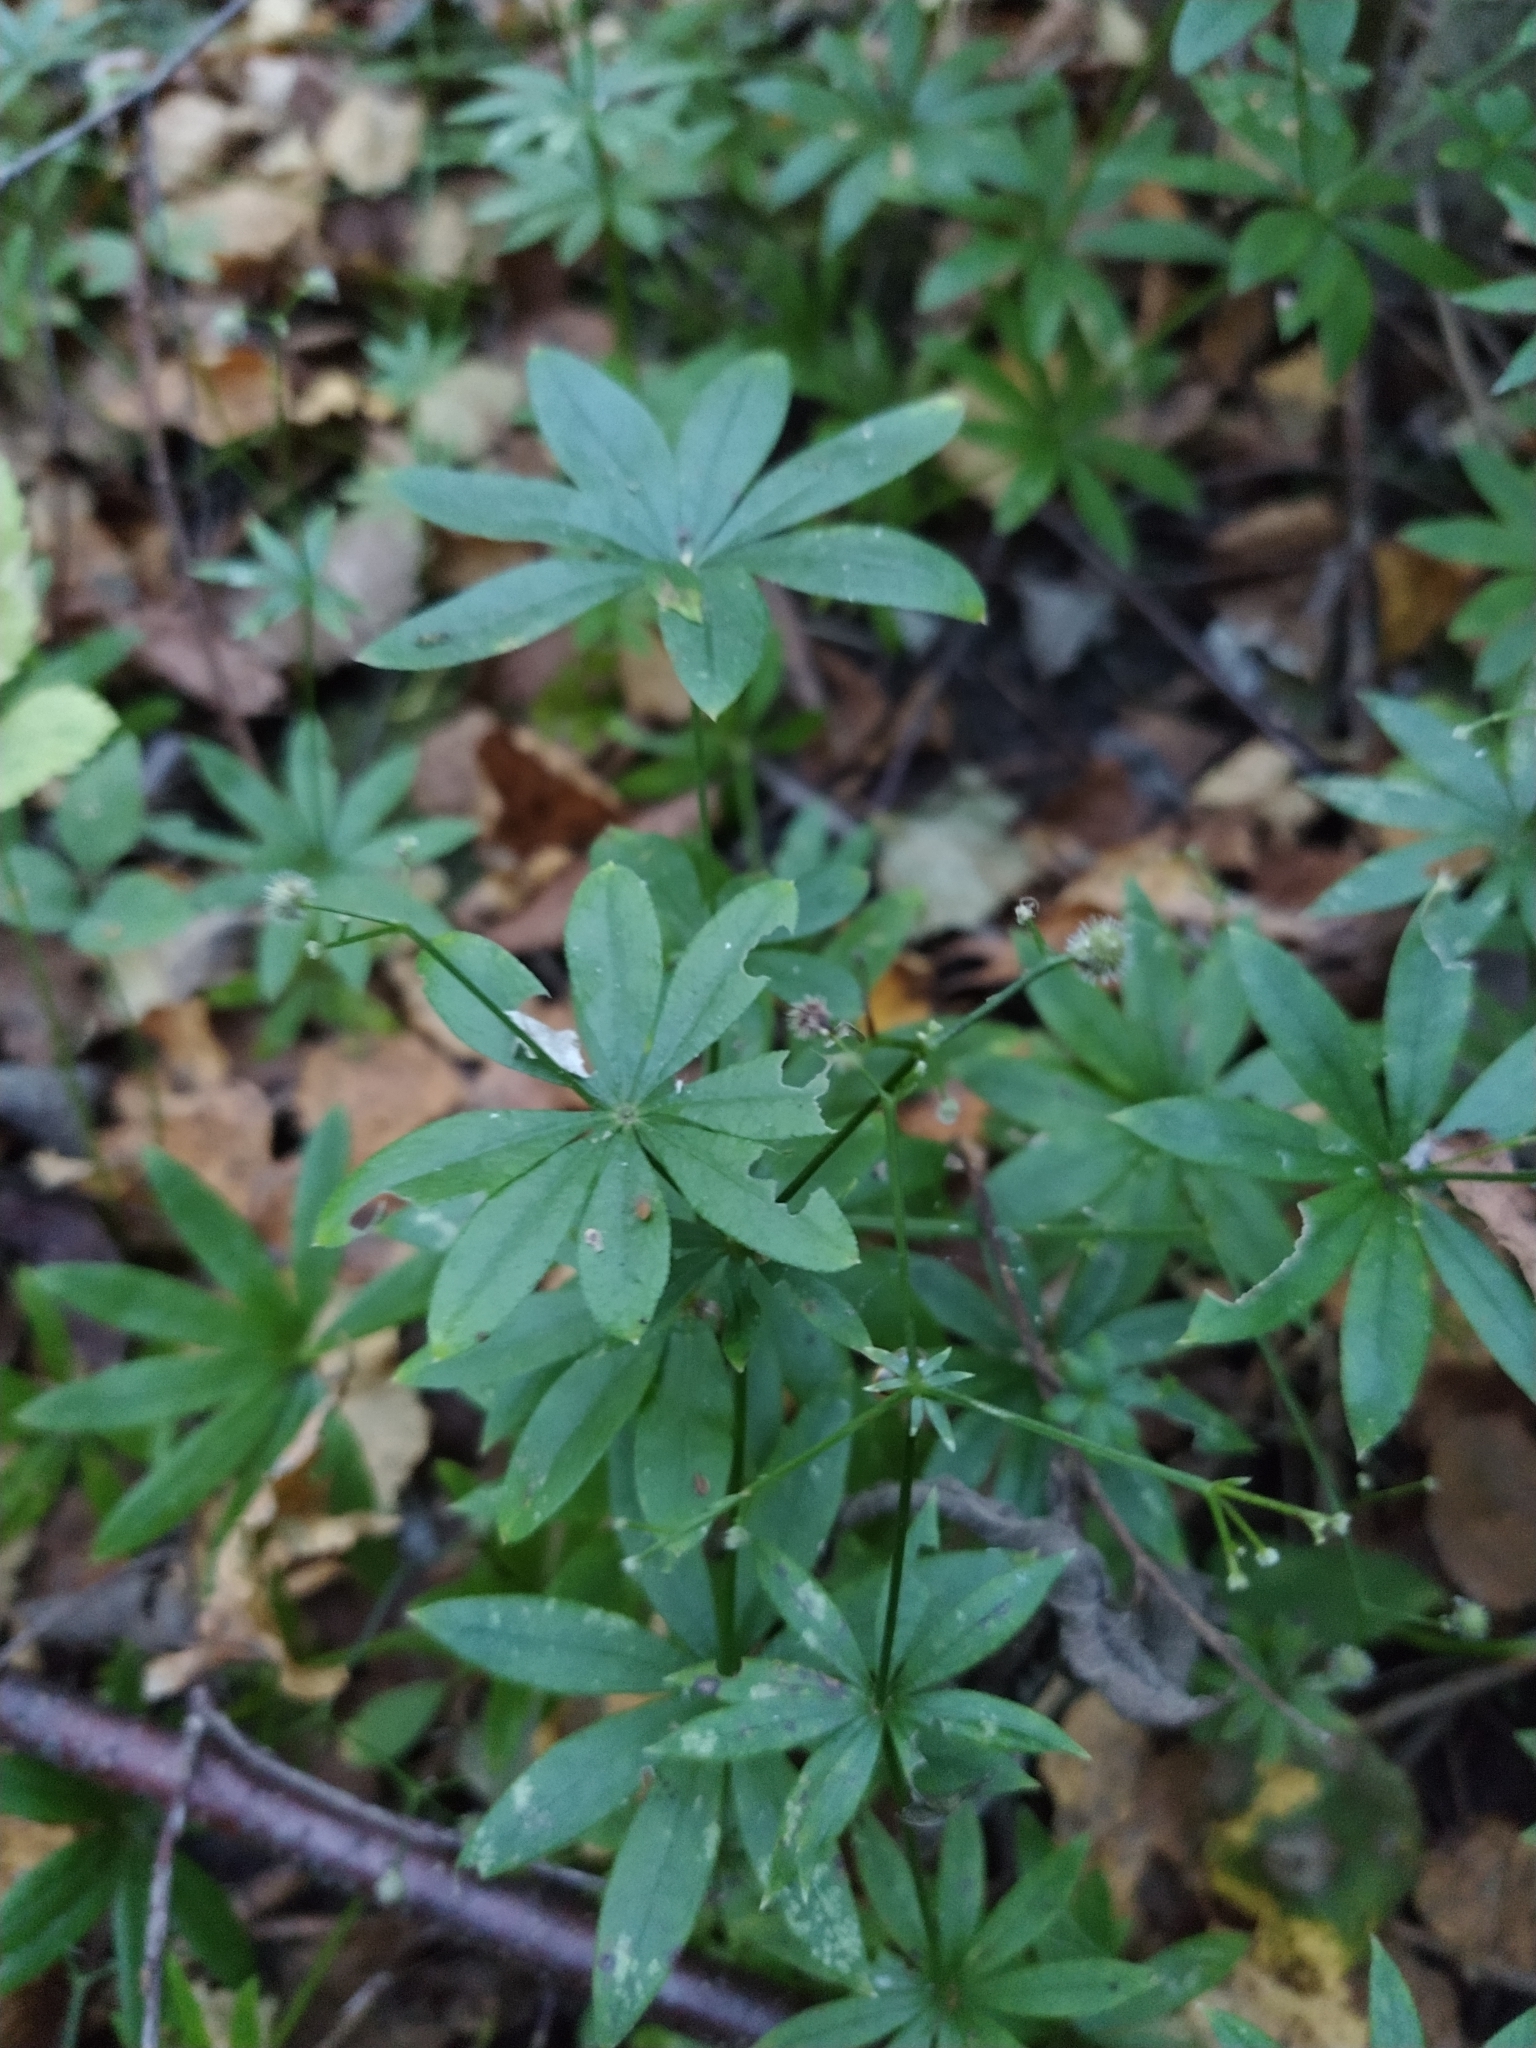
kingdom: Plantae
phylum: Tracheophyta
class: Magnoliopsida
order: Gentianales
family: Rubiaceae
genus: Galium
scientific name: Galium odoratum
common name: Sweet woodruff
